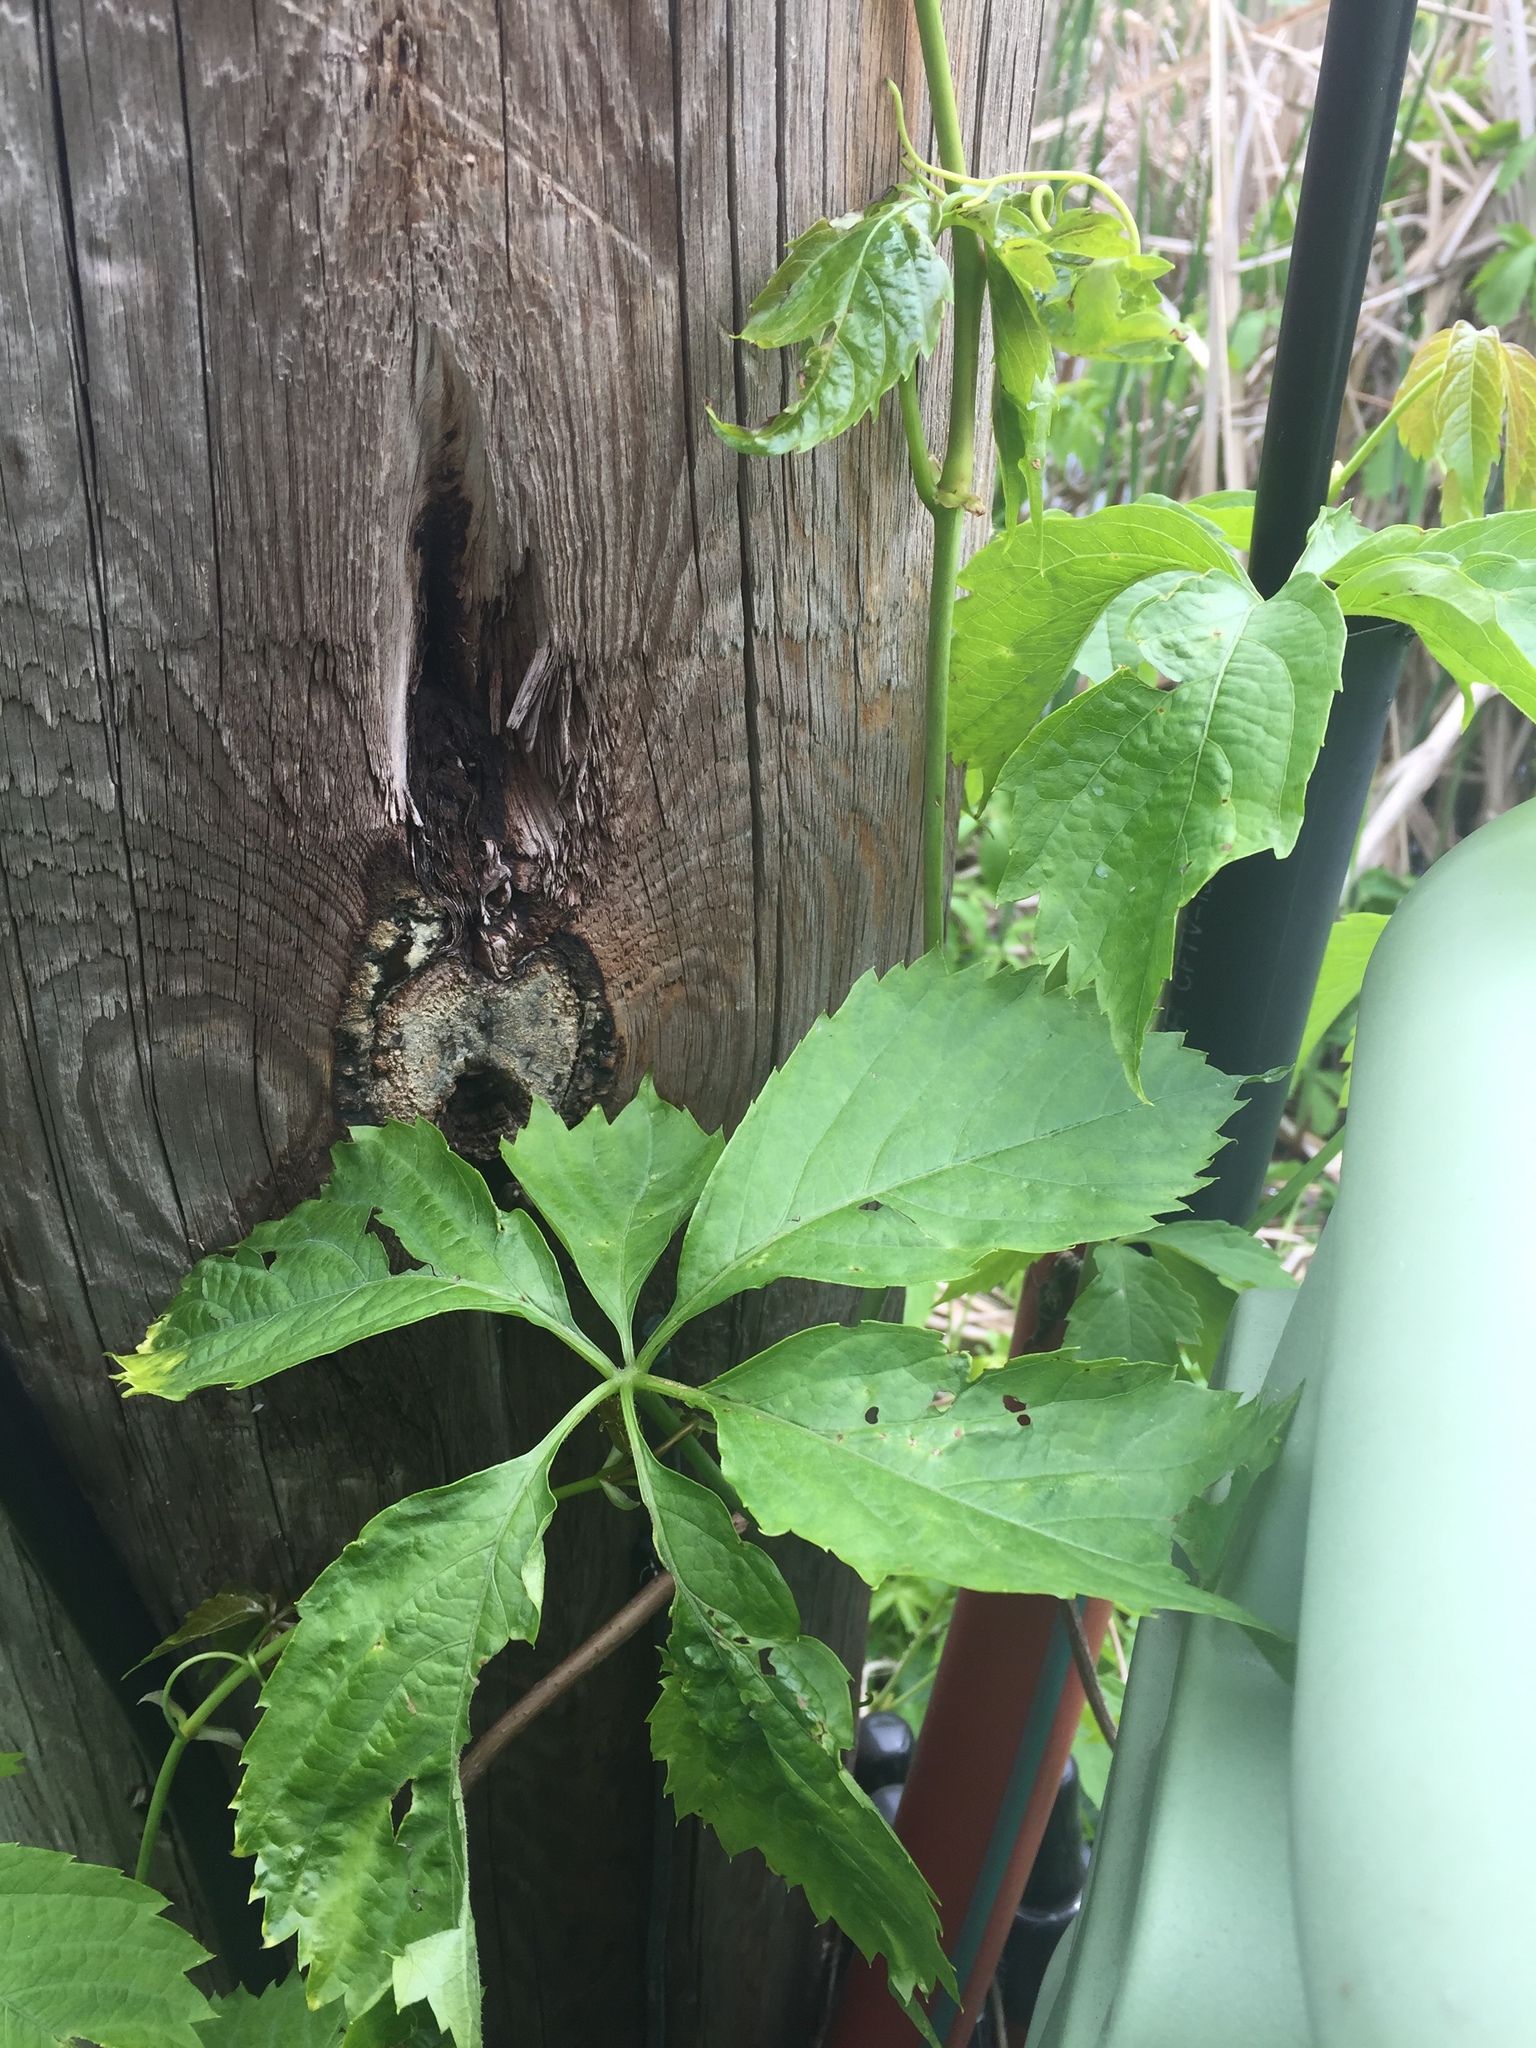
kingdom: Plantae
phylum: Tracheophyta
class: Magnoliopsida
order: Vitales
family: Vitaceae
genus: Parthenocissus
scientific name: Parthenocissus quinquefolia
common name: Virginia-creeper
